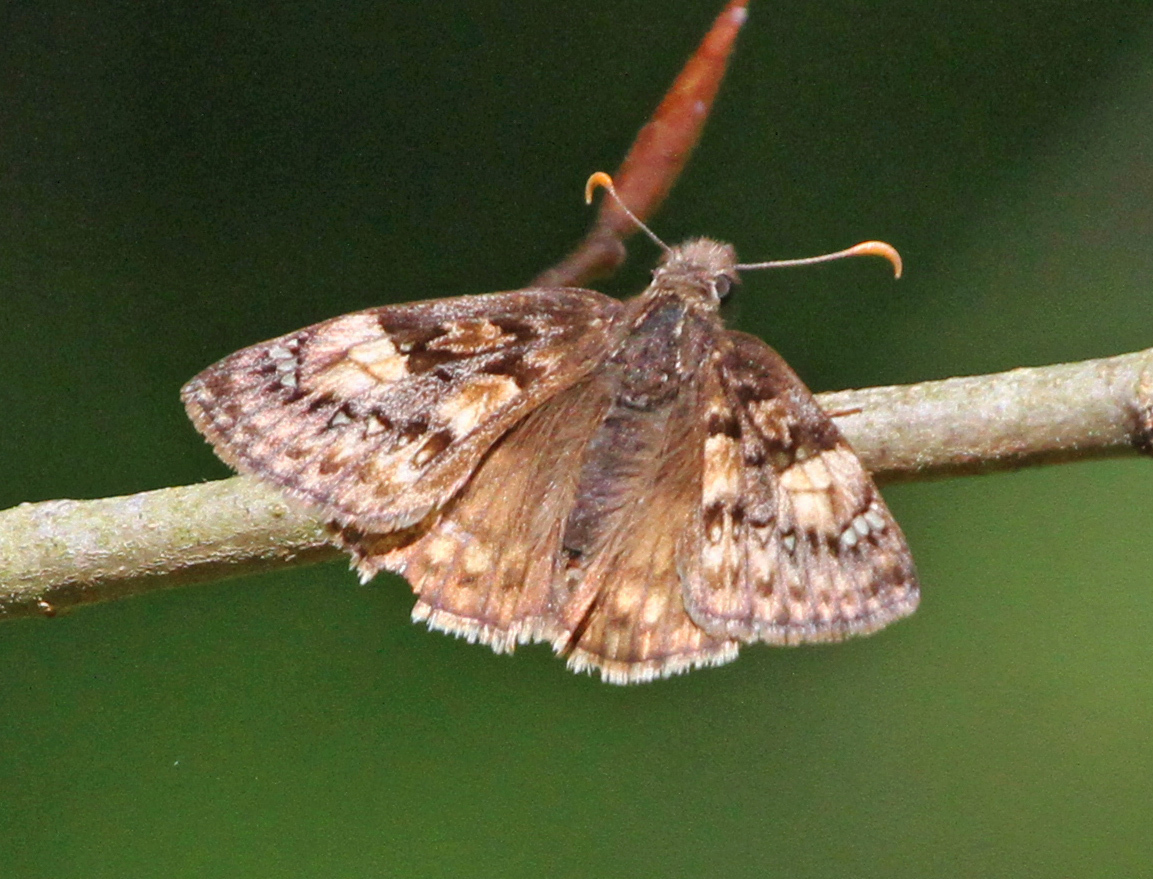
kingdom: Animalia
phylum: Arthropoda
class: Insecta
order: Lepidoptera
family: Hesperiidae
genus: Erynnis
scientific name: Erynnis juvenalis
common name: Juvenal's duskywing
